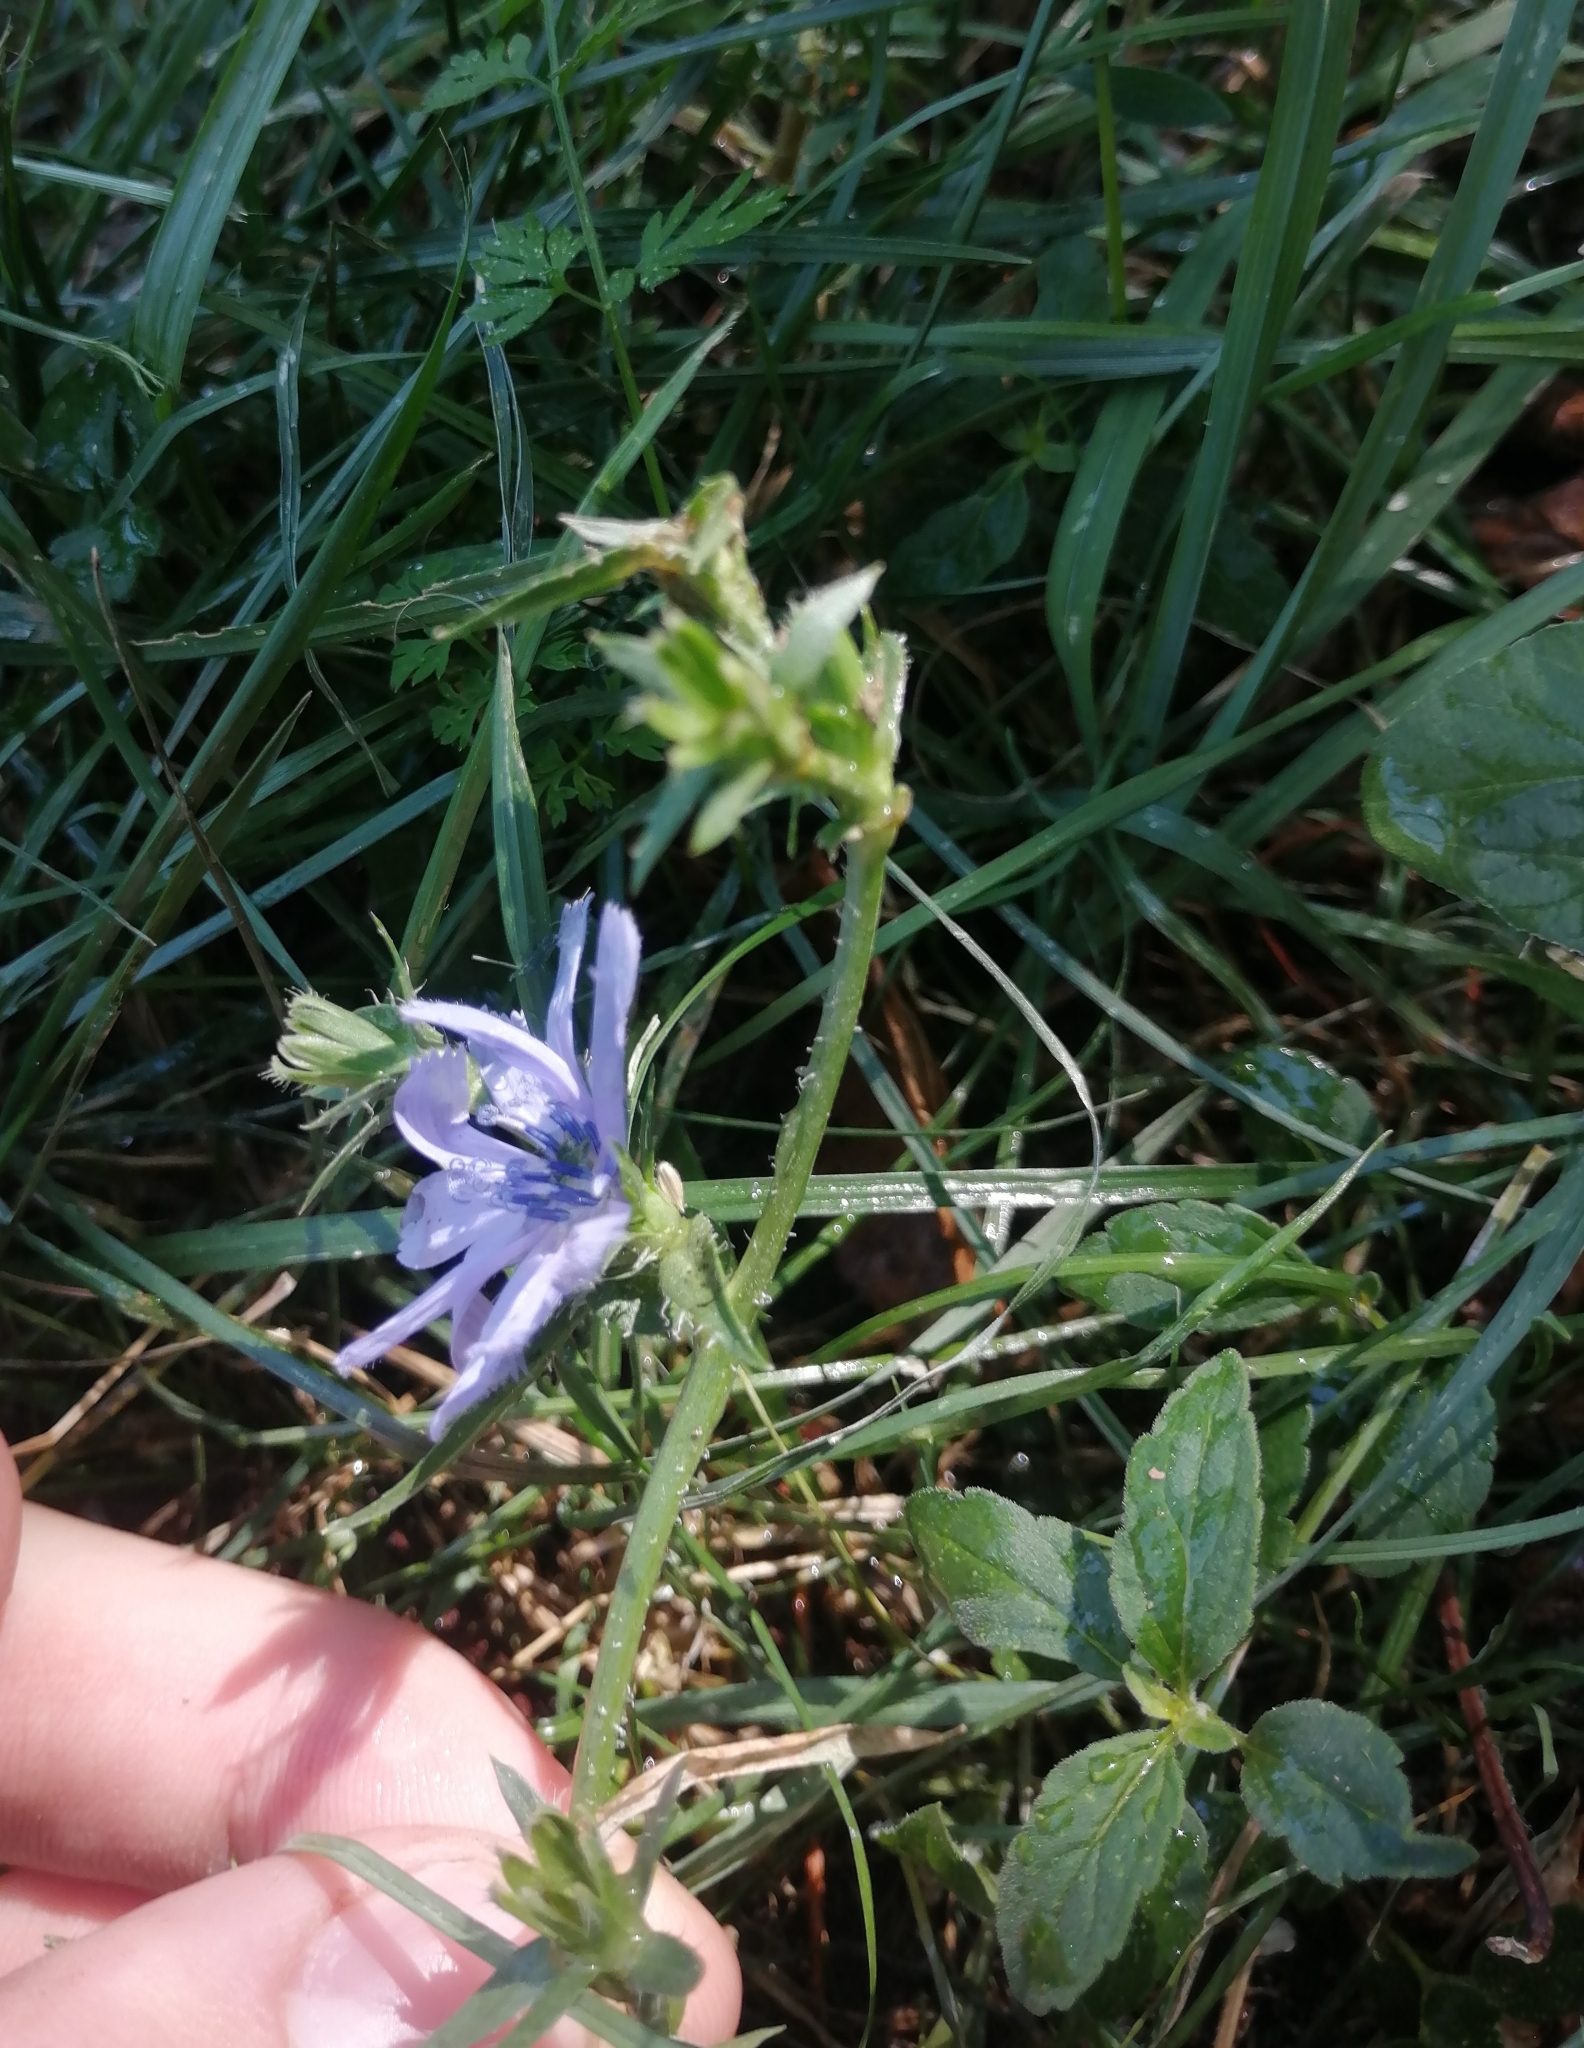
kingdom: Plantae
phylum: Tracheophyta
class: Magnoliopsida
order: Asterales
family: Asteraceae
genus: Cichorium
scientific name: Cichorium intybus
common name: Chicory
